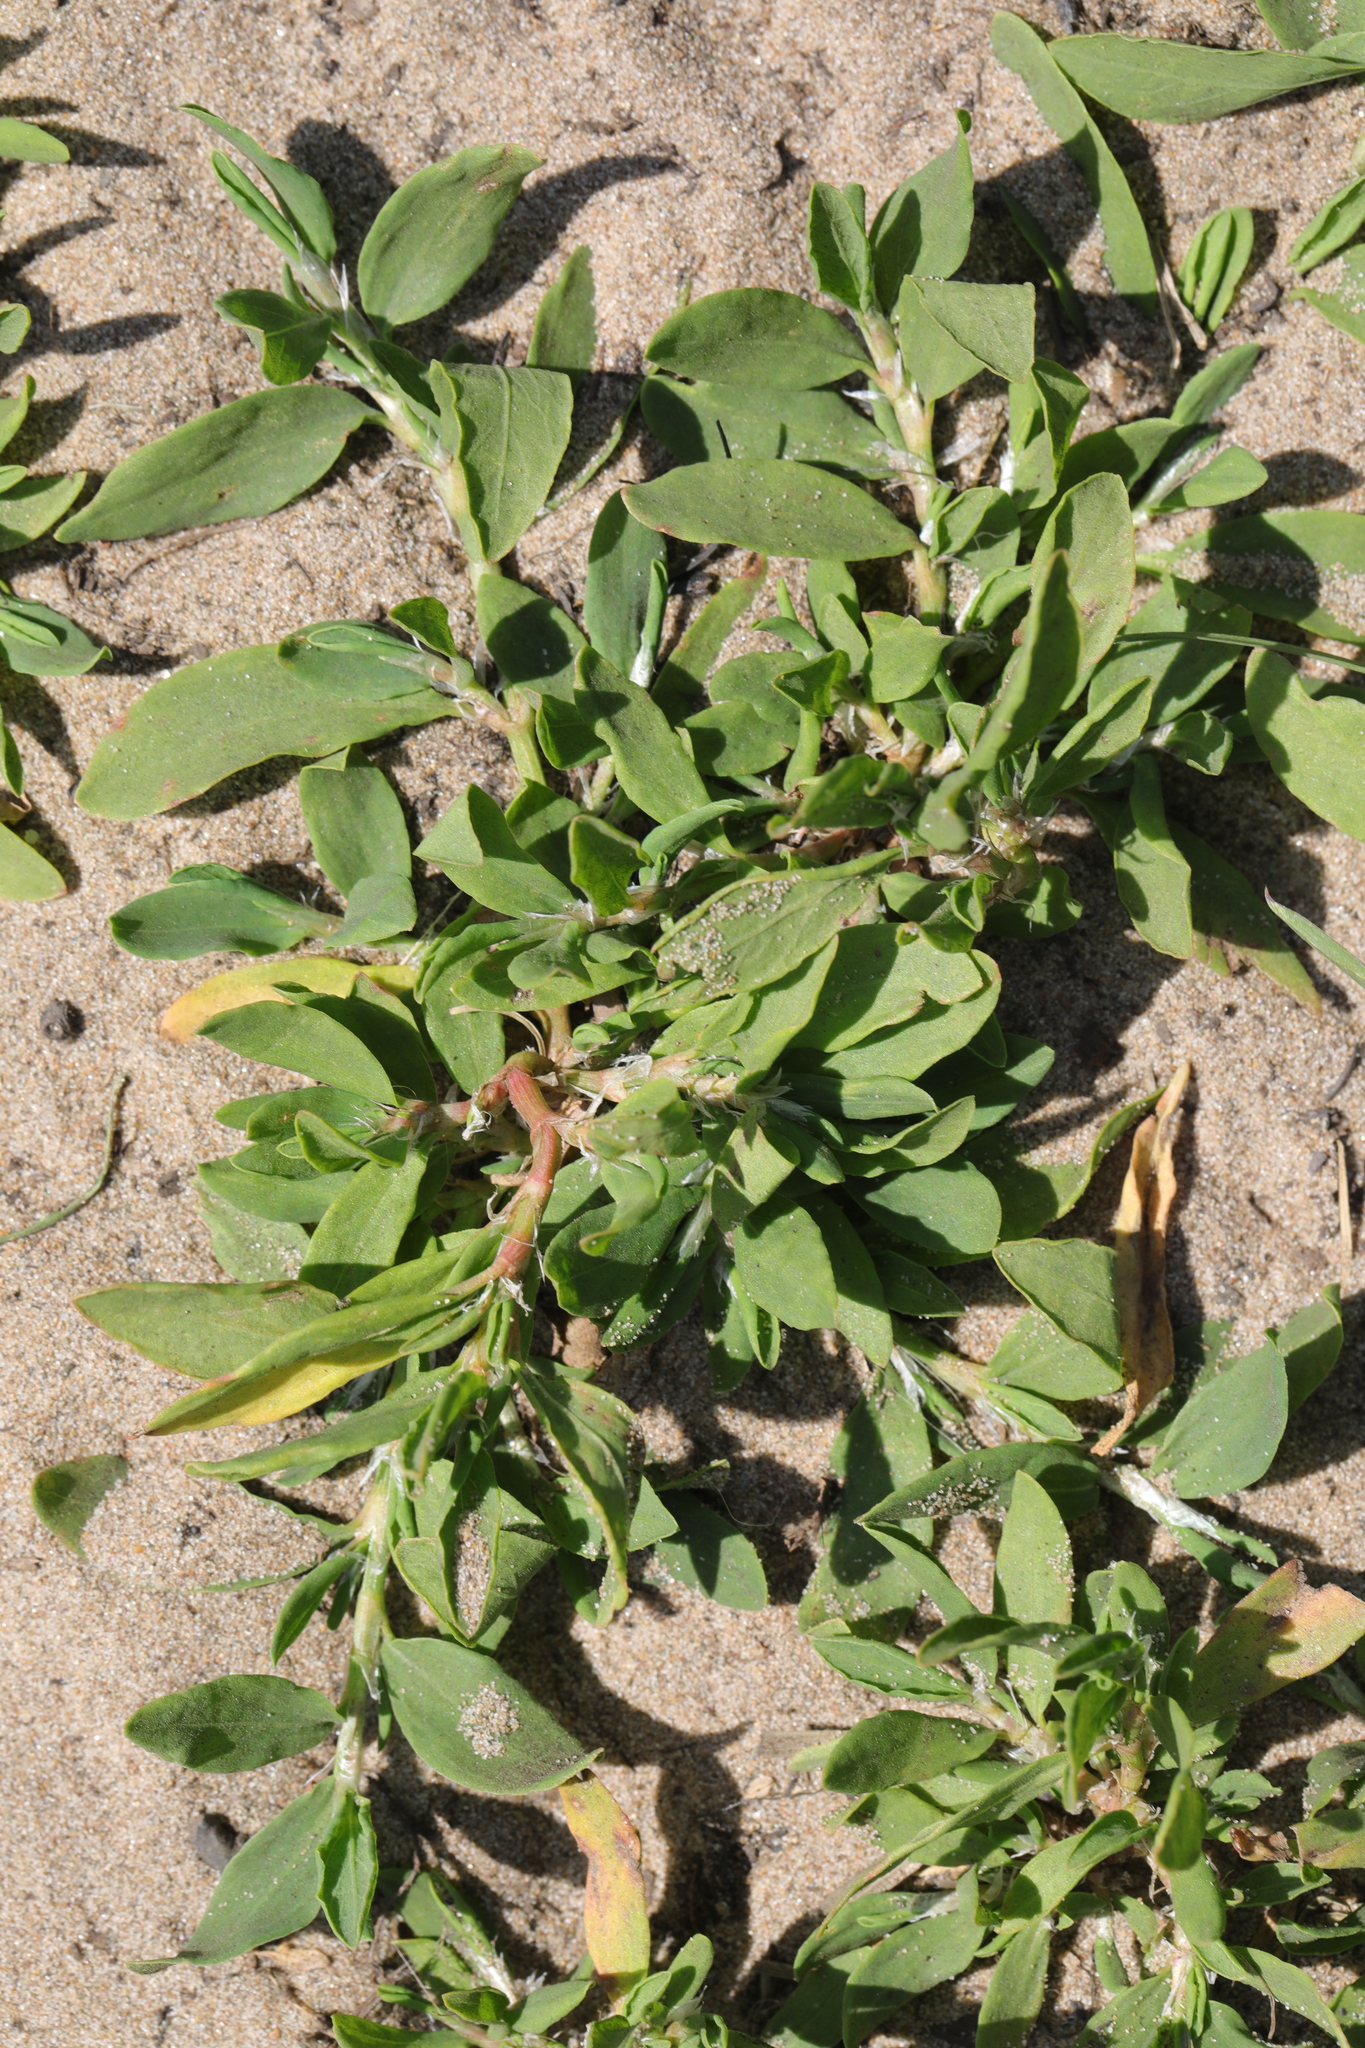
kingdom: Plantae
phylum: Tracheophyta
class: Magnoliopsida
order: Caryophyllales
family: Polygonaceae
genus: Polygonum
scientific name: Polygonum aviculare
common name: Prostrate knotweed
